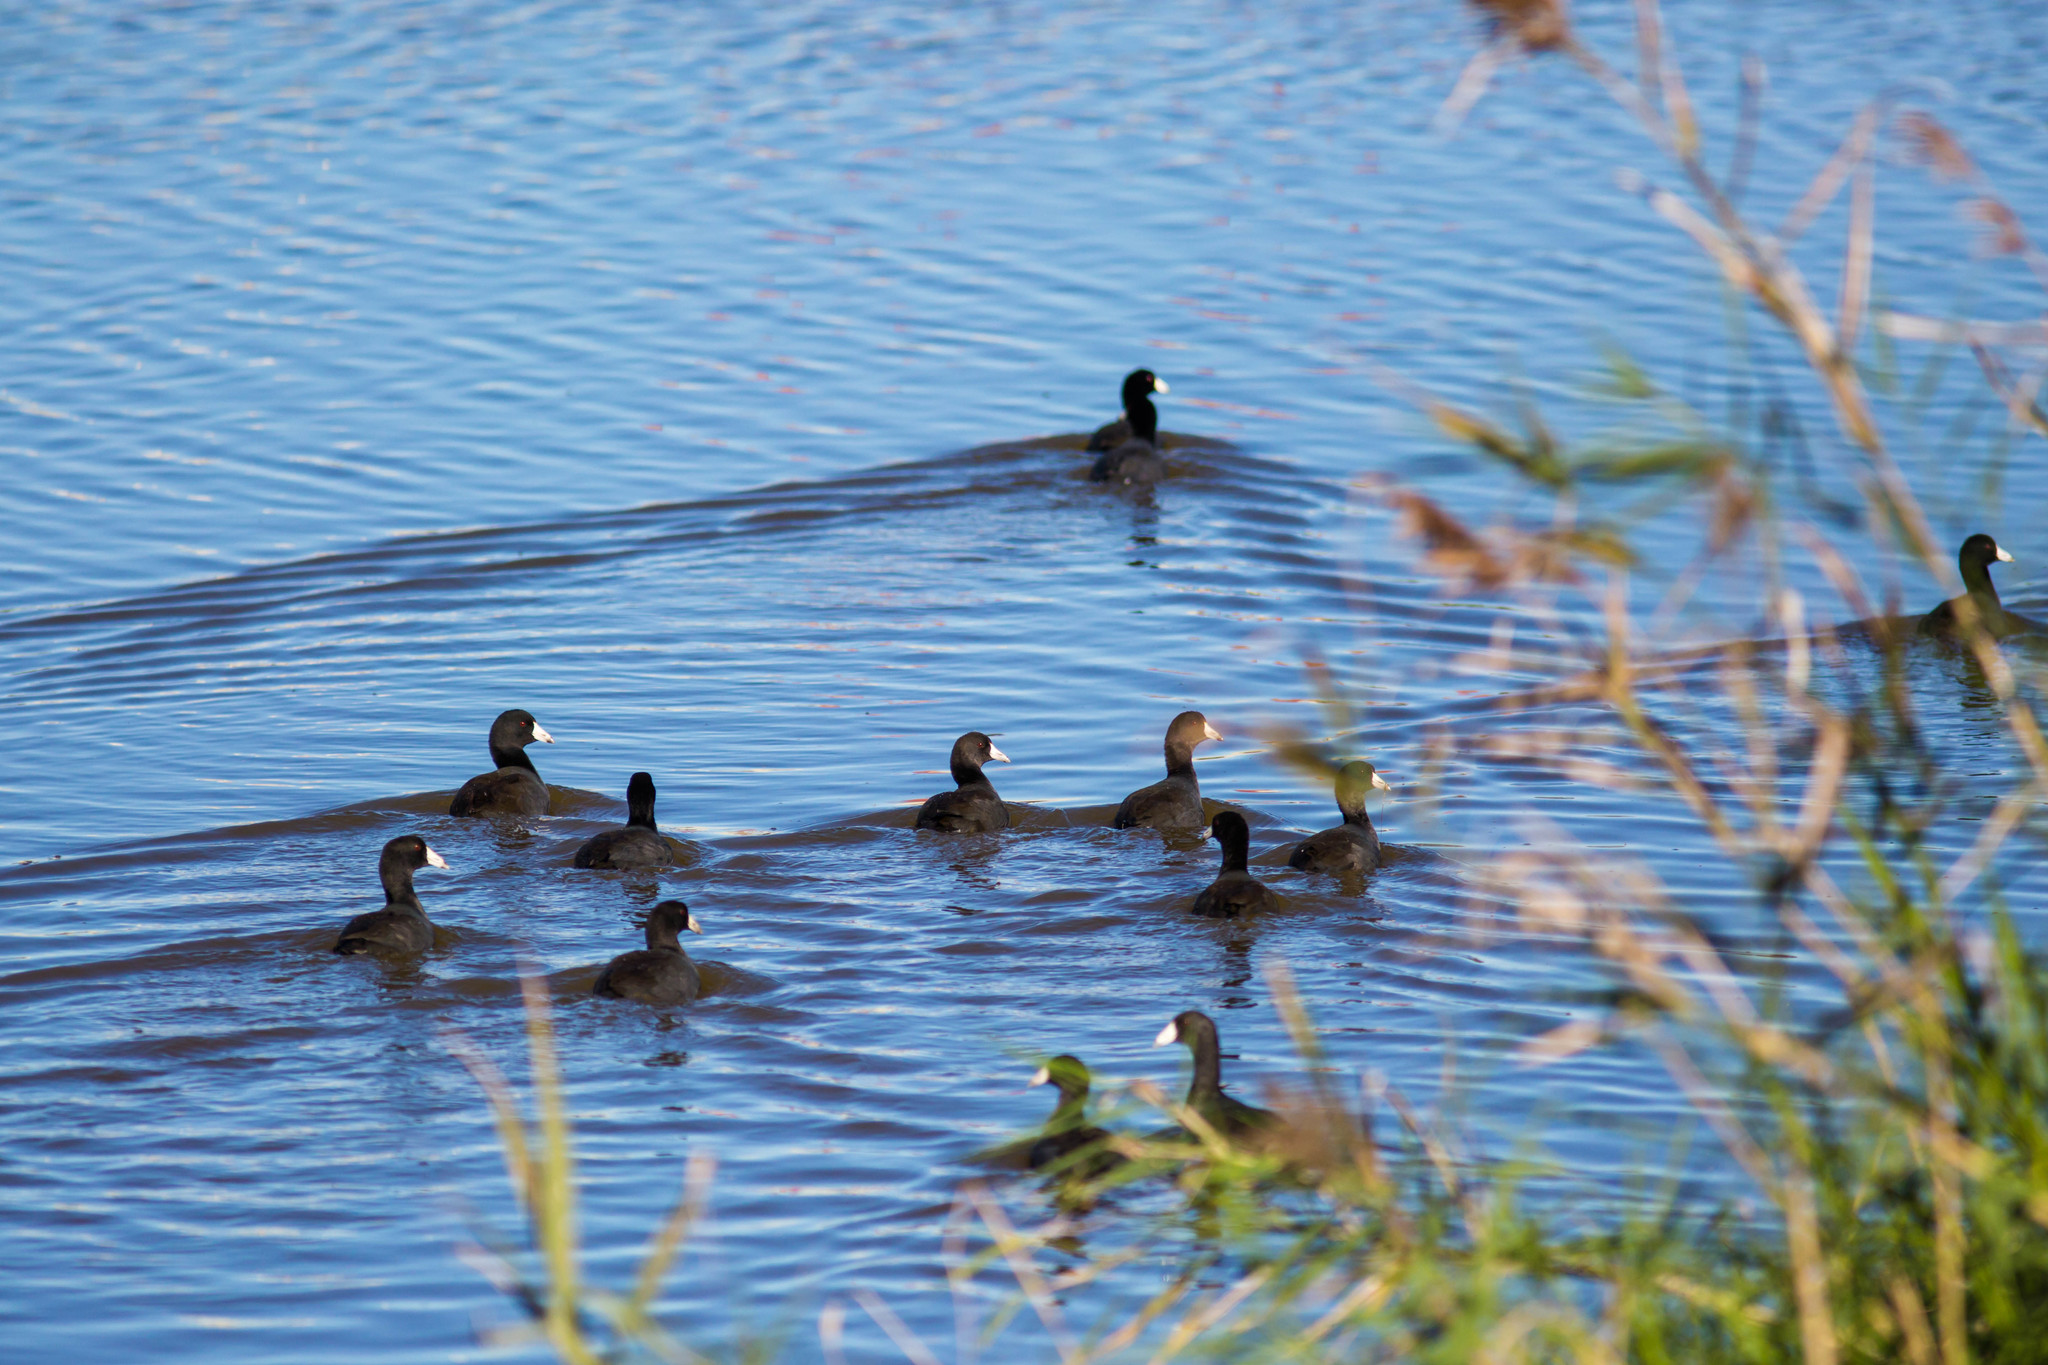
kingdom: Animalia
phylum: Chordata
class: Aves
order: Gruiformes
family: Rallidae
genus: Fulica
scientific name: Fulica americana
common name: American coot
